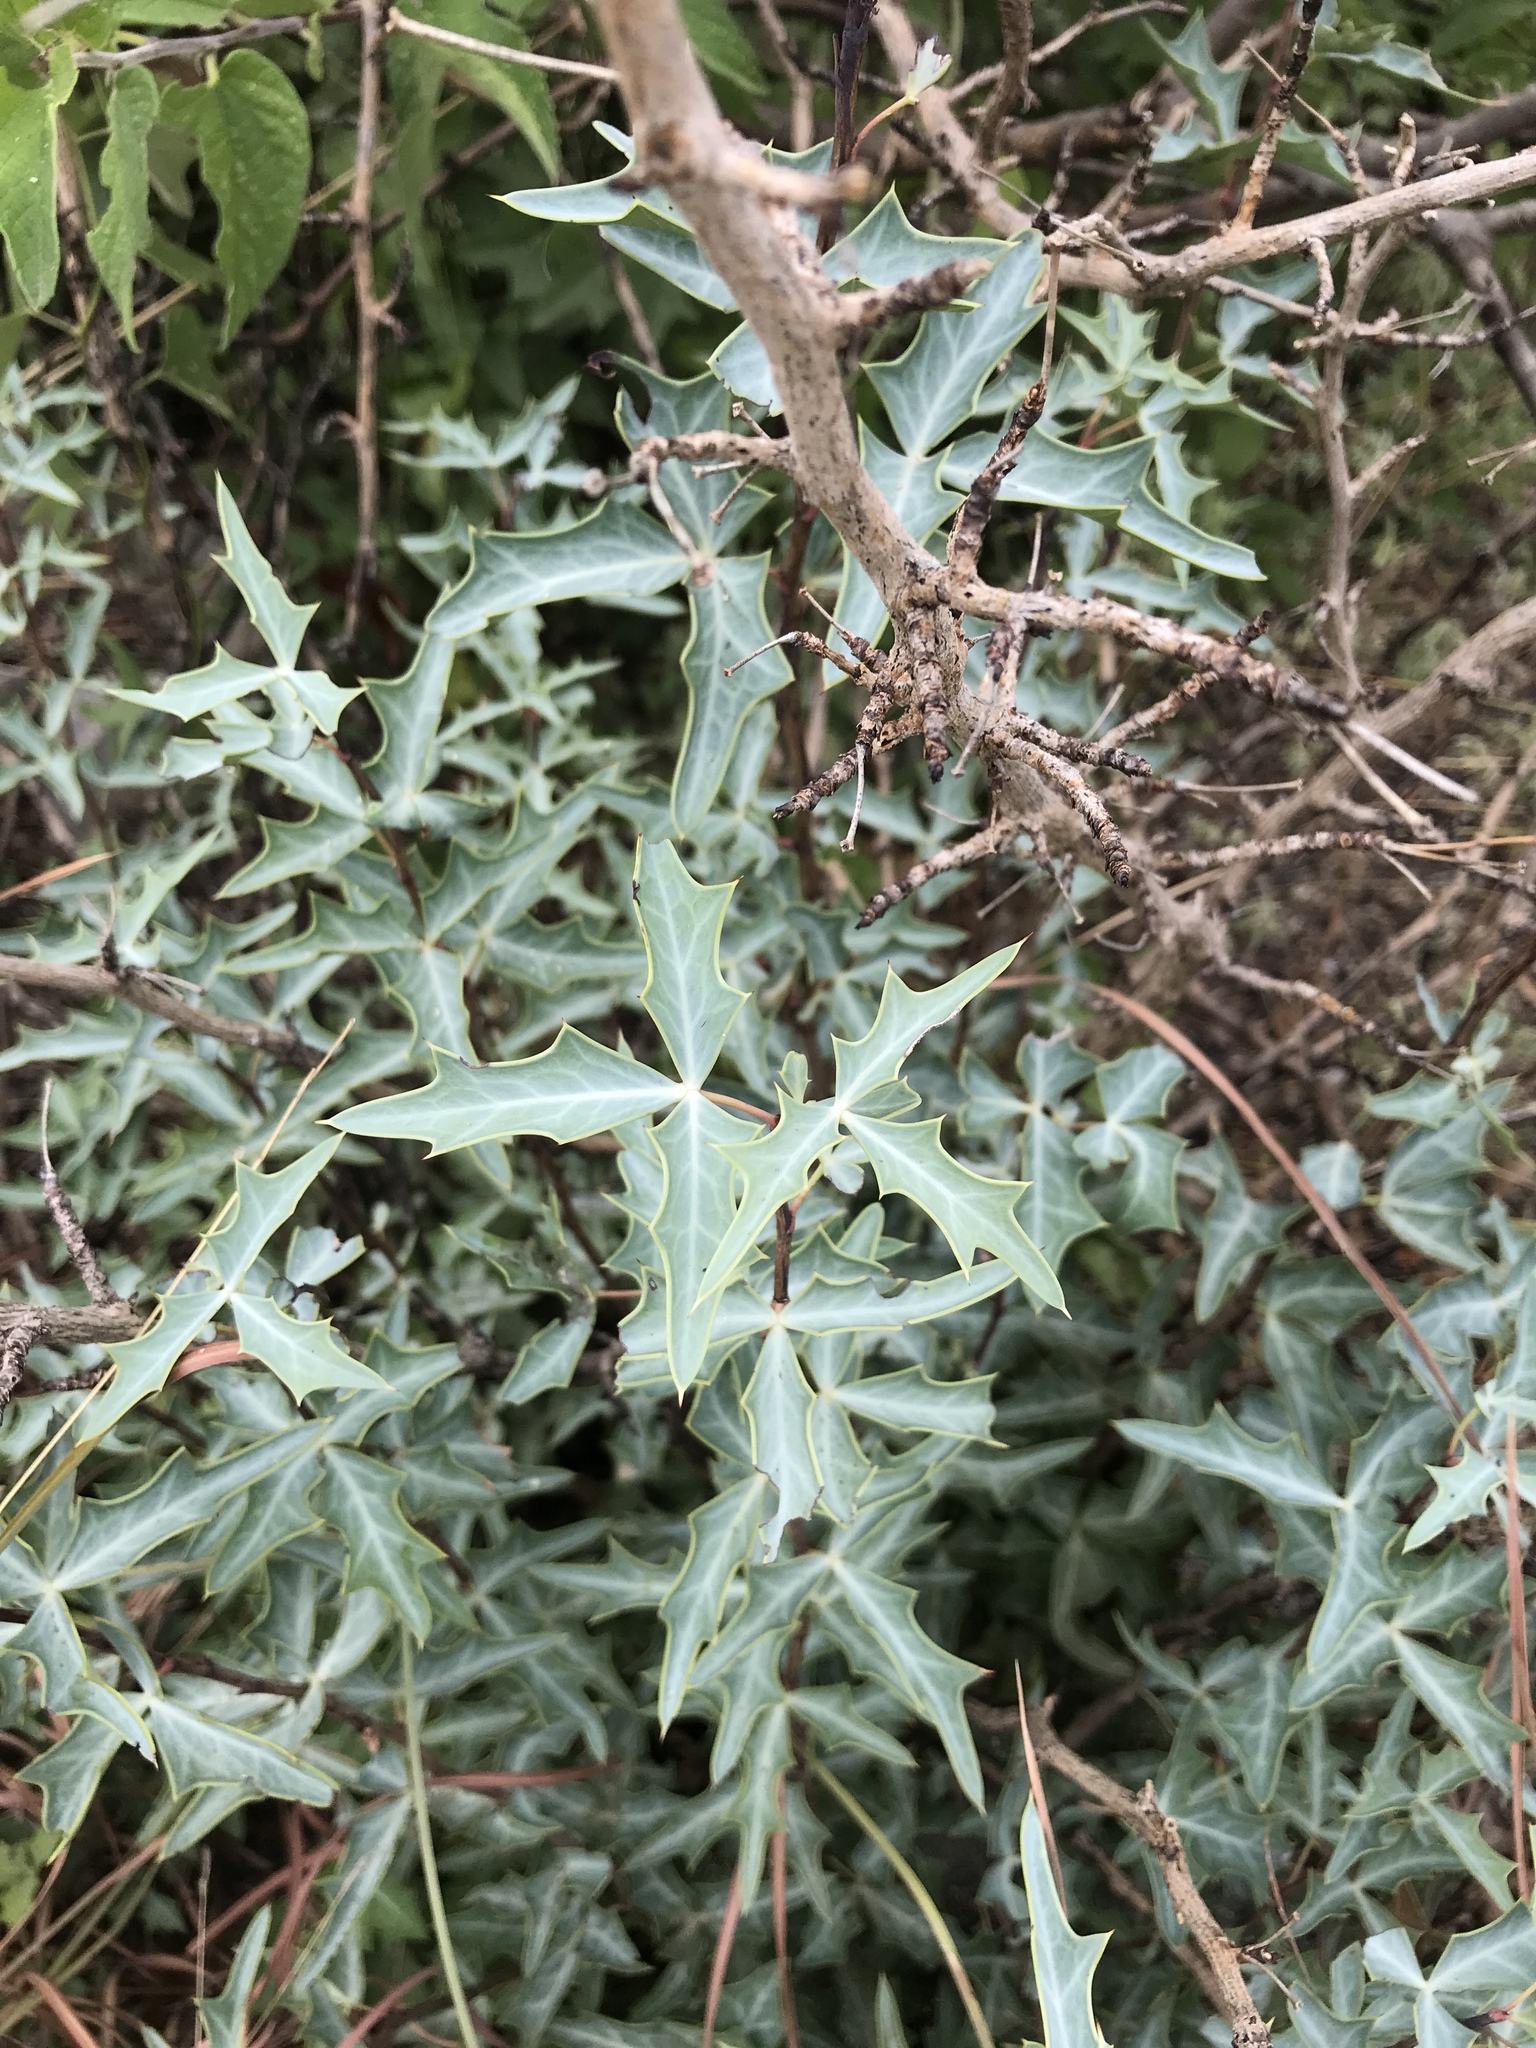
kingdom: Plantae
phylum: Tracheophyta
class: Magnoliopsida
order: Ranunculales
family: Berberidaceae
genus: Alloberberis
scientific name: Alloberberis trifoliolata
